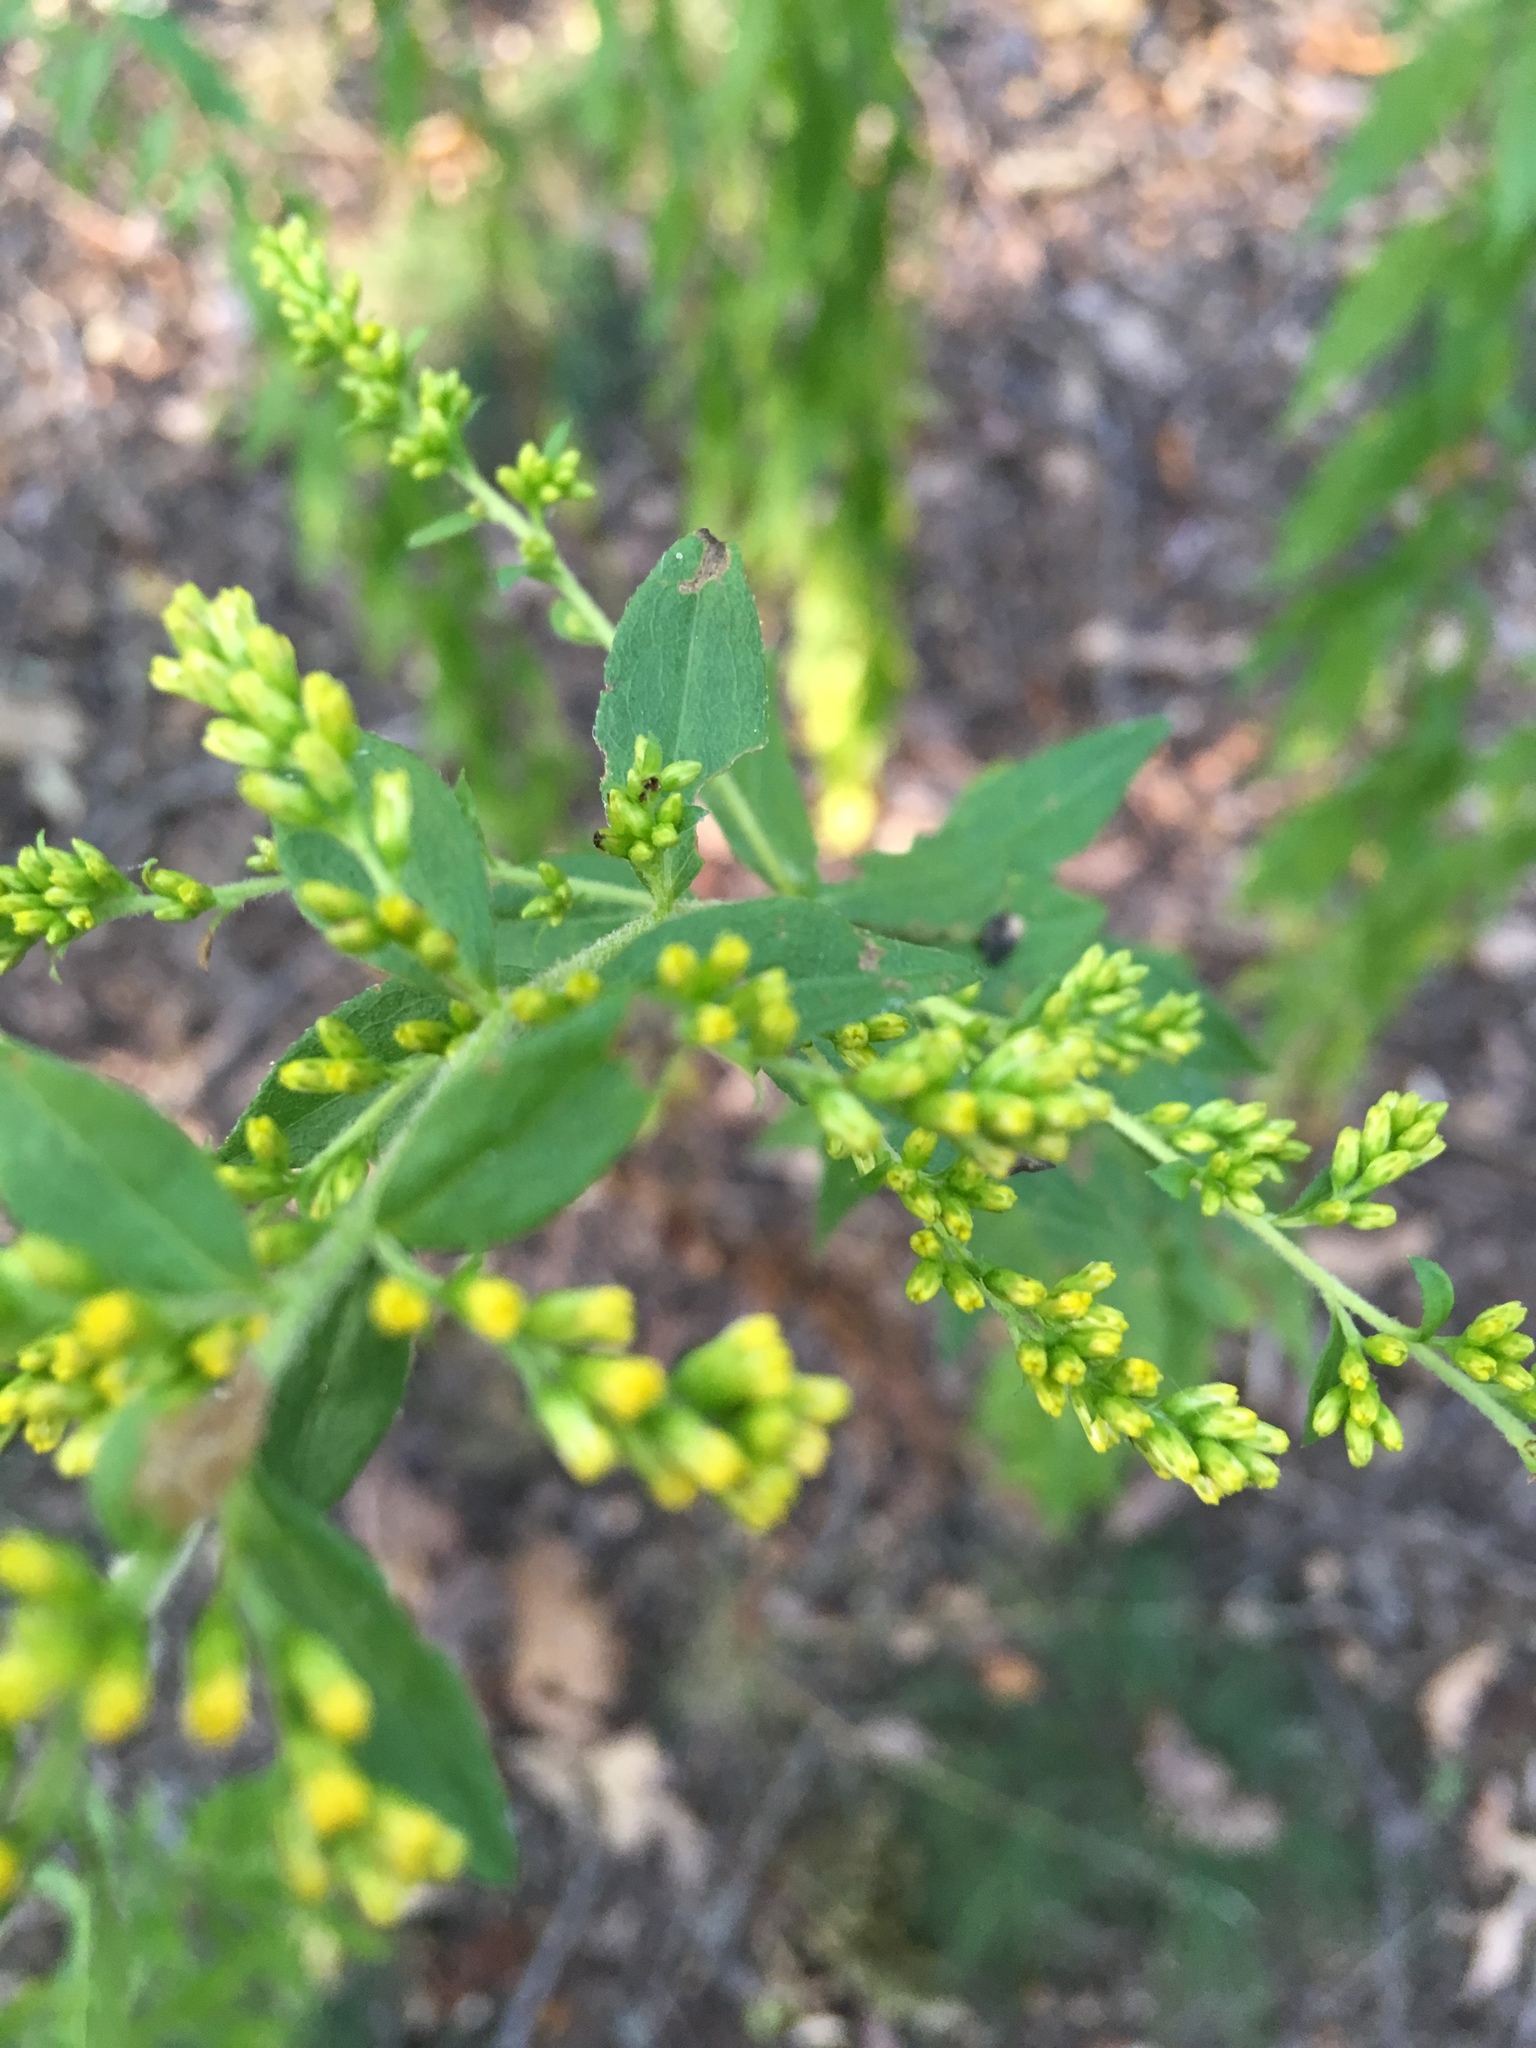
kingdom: Plantae
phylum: Tracheophyta
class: Magnoliopsida
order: Asterales
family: Asteraceae
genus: Solidago
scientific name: Solidago rugosa
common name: Rough-stemmed goldenrod
